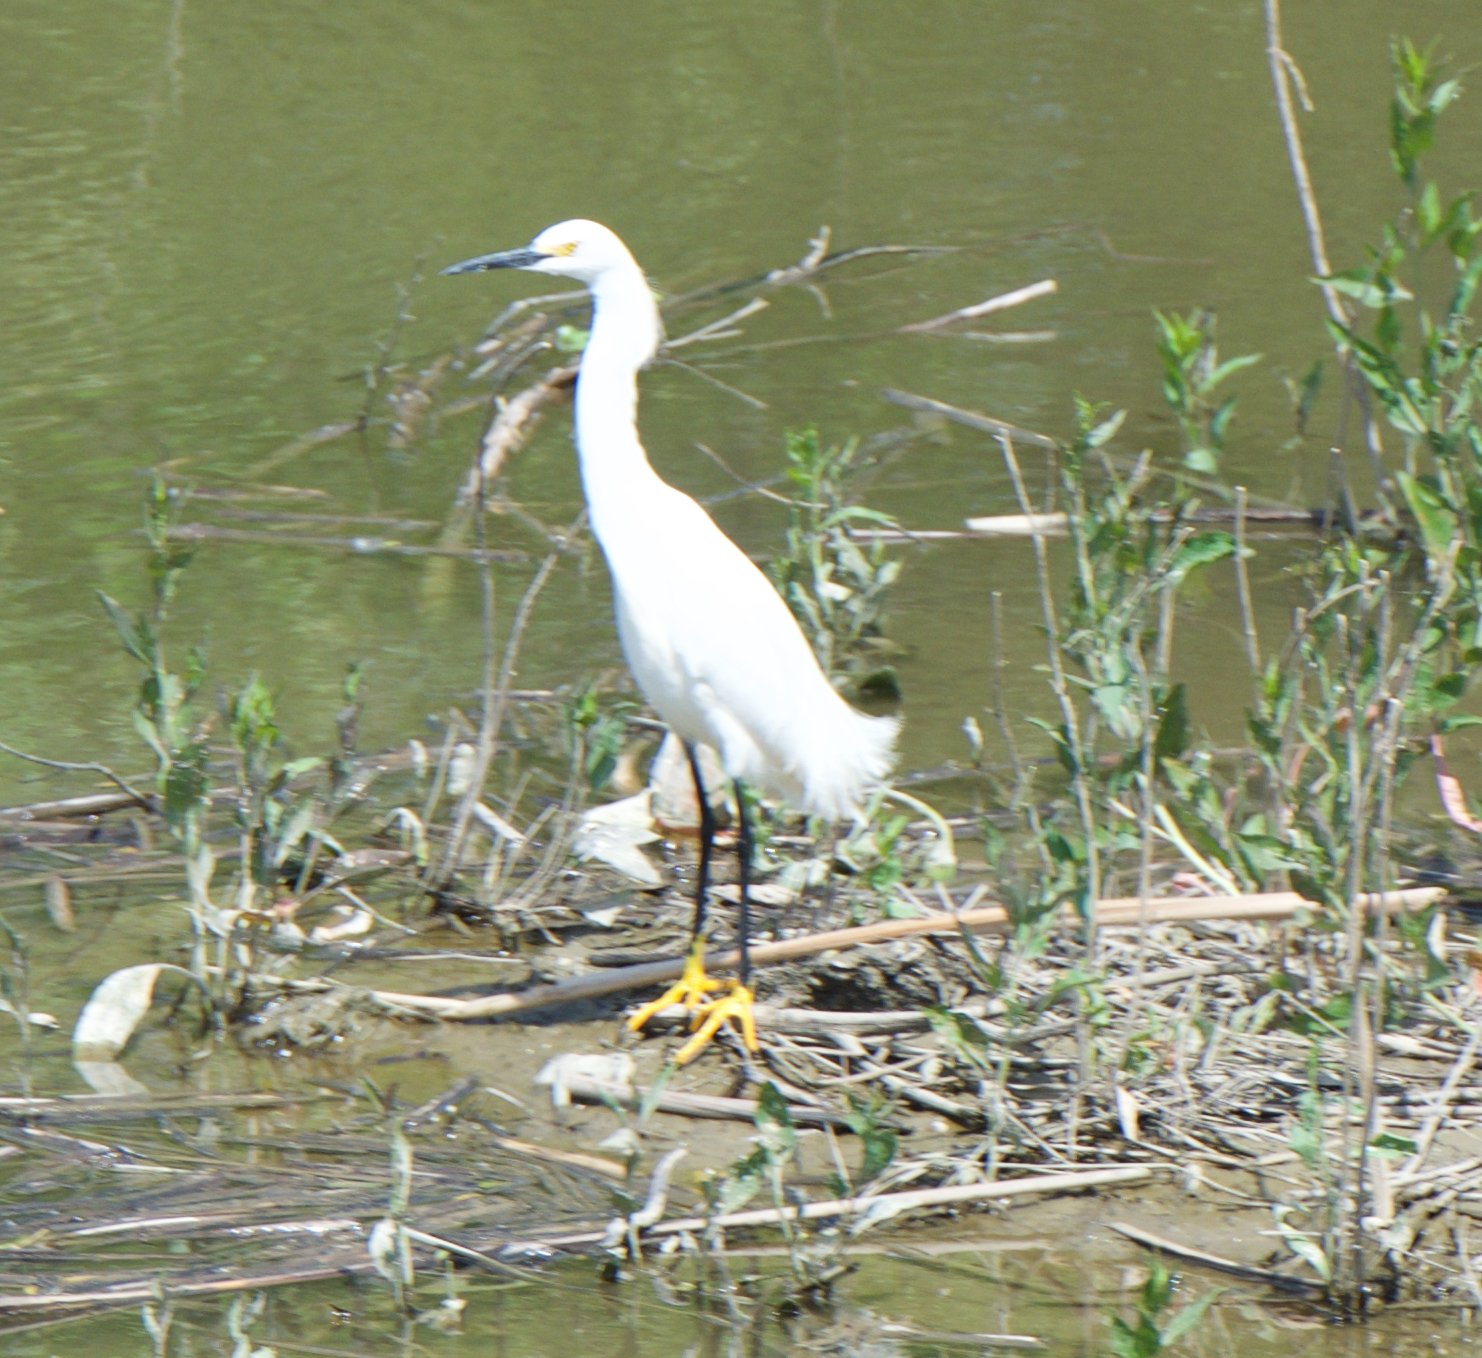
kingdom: Animalia
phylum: Chordata
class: Aves
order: Pelecaniformes
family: Ardeidae
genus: Egretta
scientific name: Egretta thula
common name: Snowy egret
